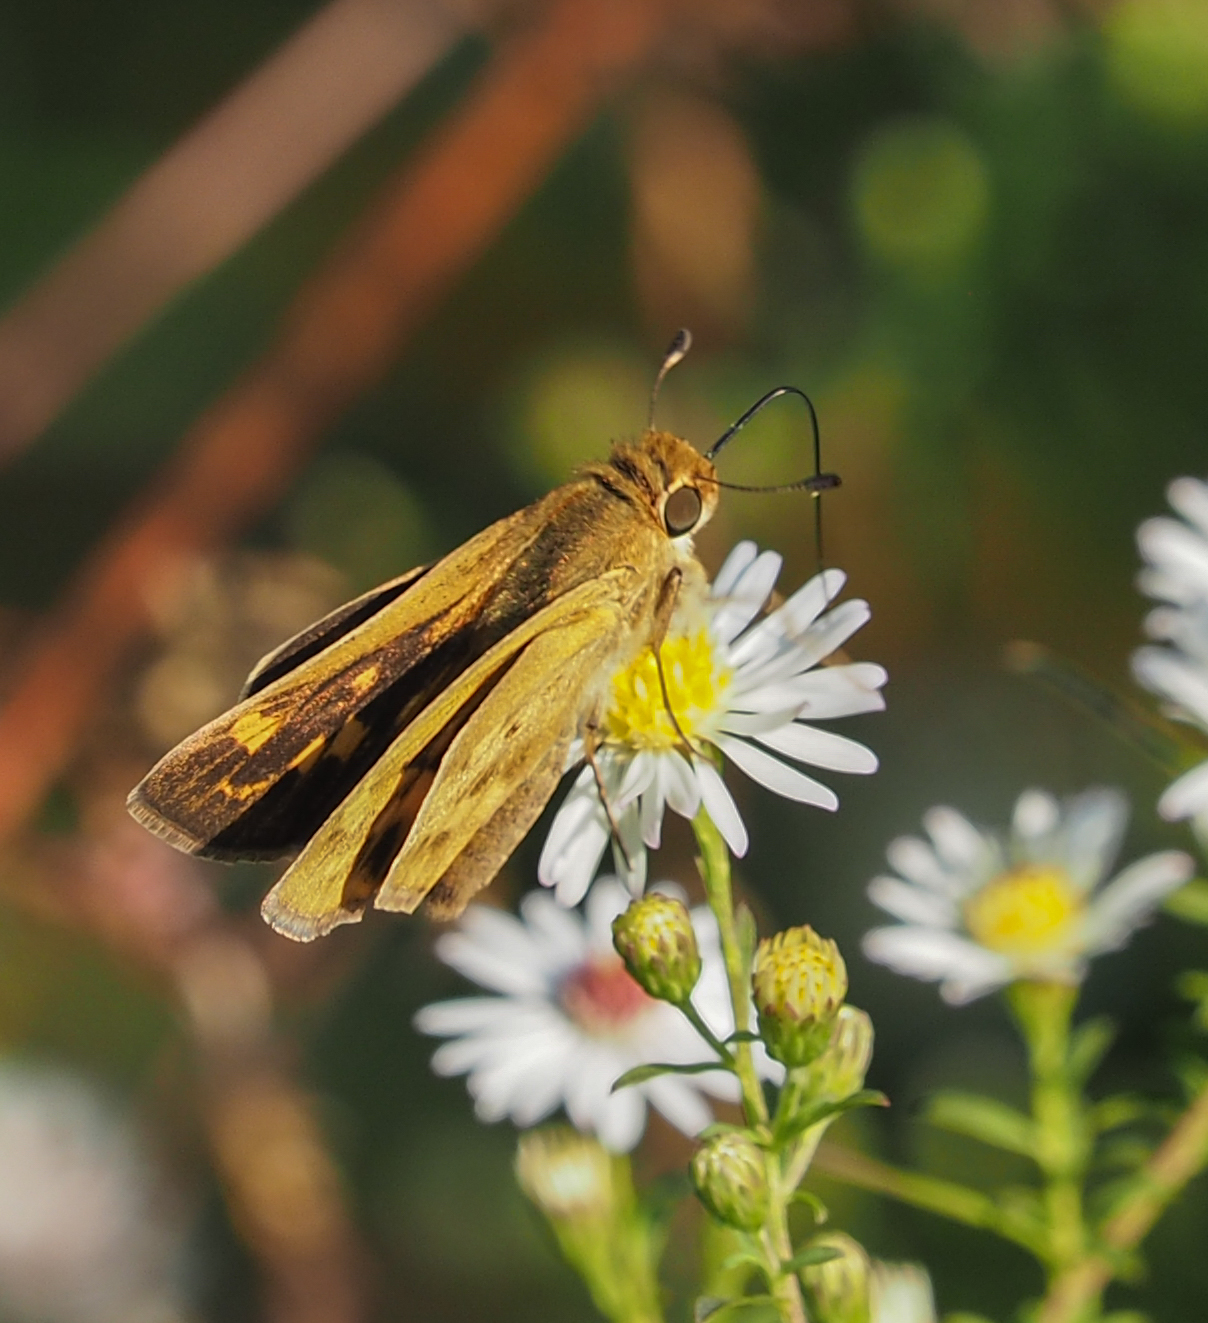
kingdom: Animalia
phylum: Arthropoda
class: Insecta
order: Lepidoptera
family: Hesperiidae
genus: Hylephila
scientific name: Hylephila phyleus
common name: Fiery skipper
